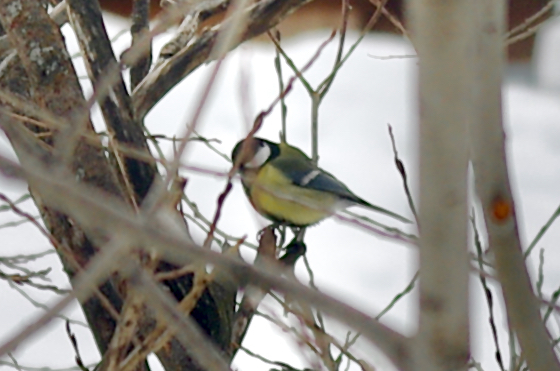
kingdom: Animalia
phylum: Chordata
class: Aves
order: Passeriformes
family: Paridae
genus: Parus
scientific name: Parus major
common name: Great tit
